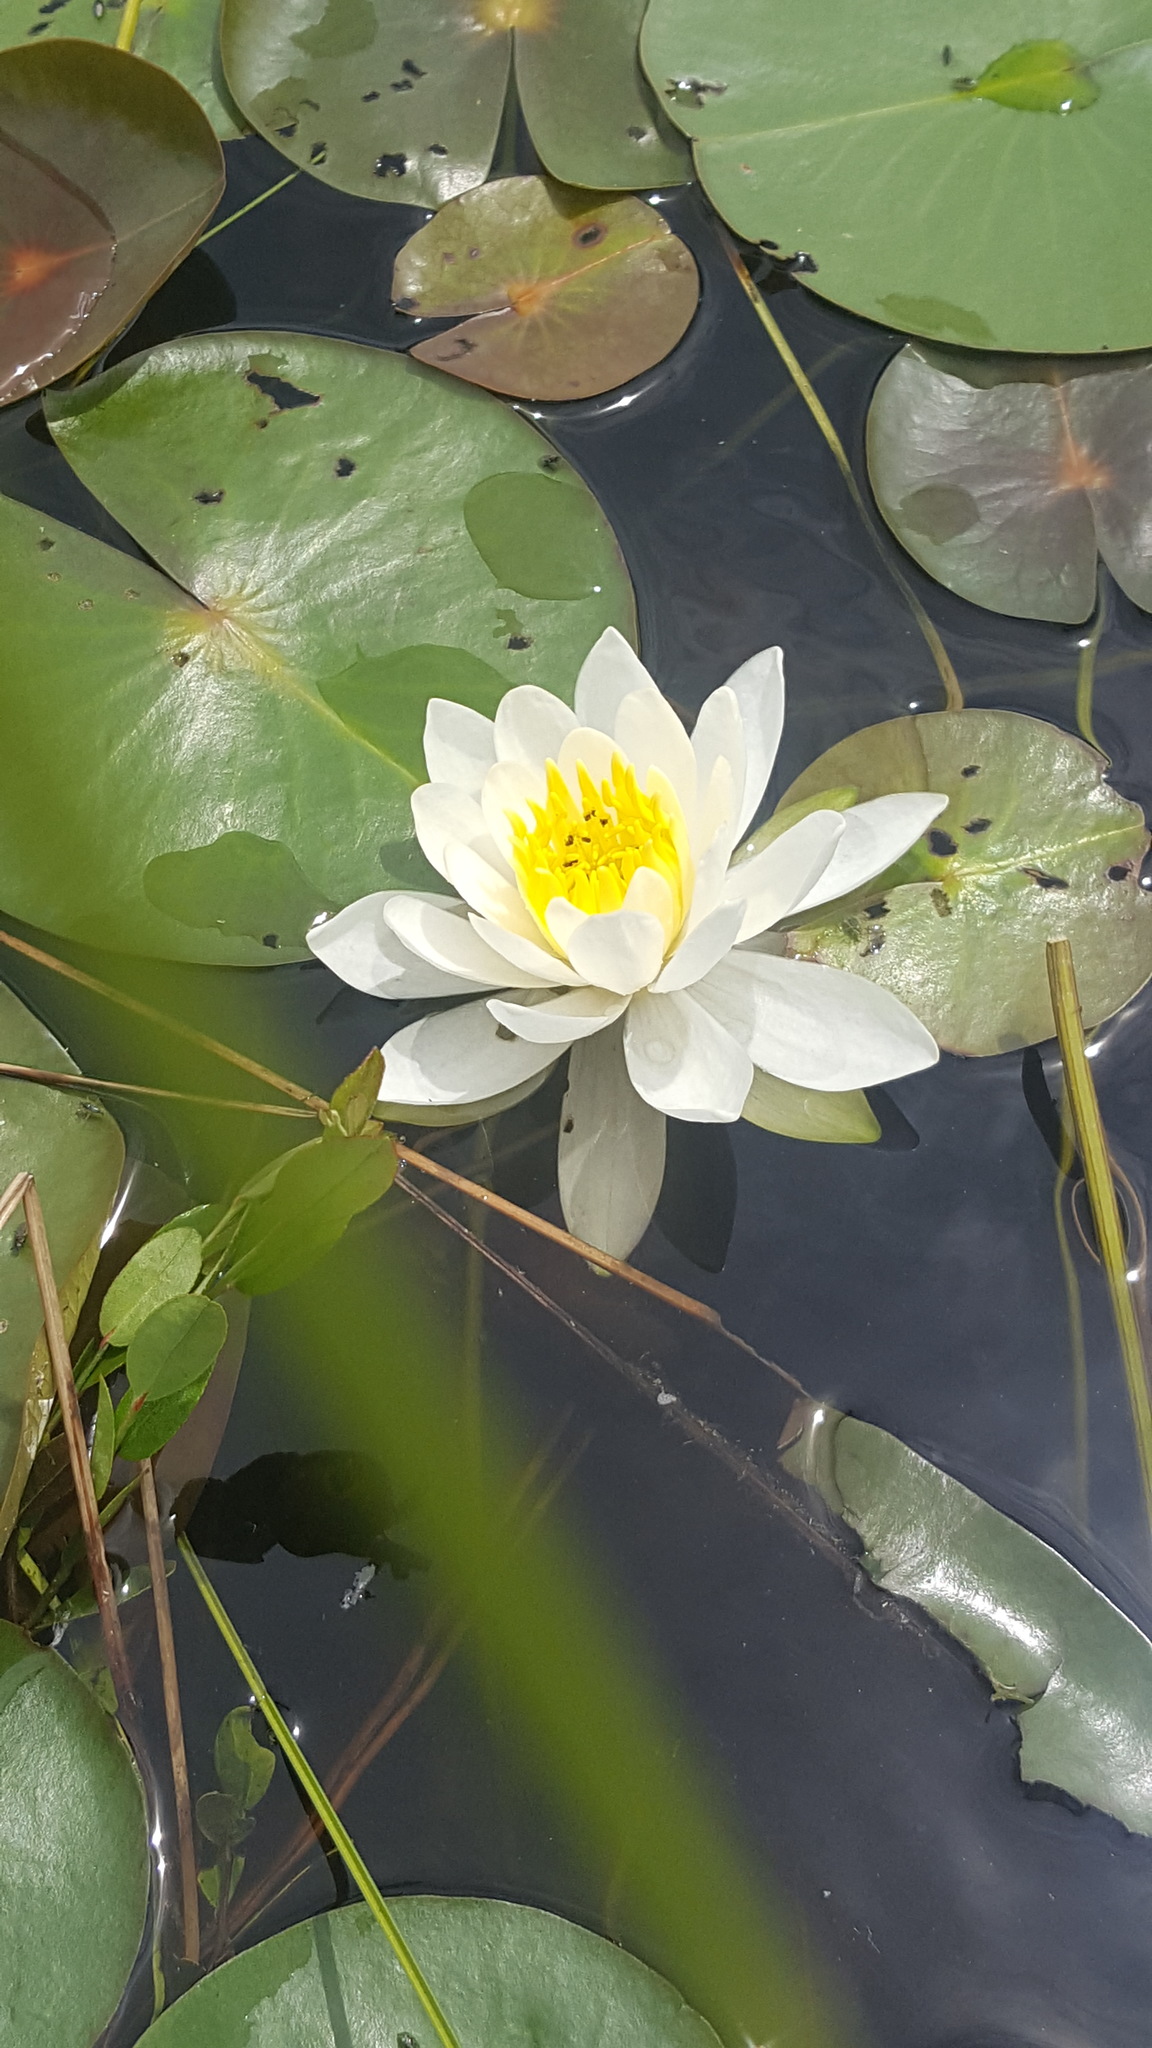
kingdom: Plantae
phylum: Tracheophyta
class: Magnoliopsida
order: Nymphaeales
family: Nymphaeaceae
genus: Nymphaea
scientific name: Nymphaea odorata
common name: Fragrant water-lily
